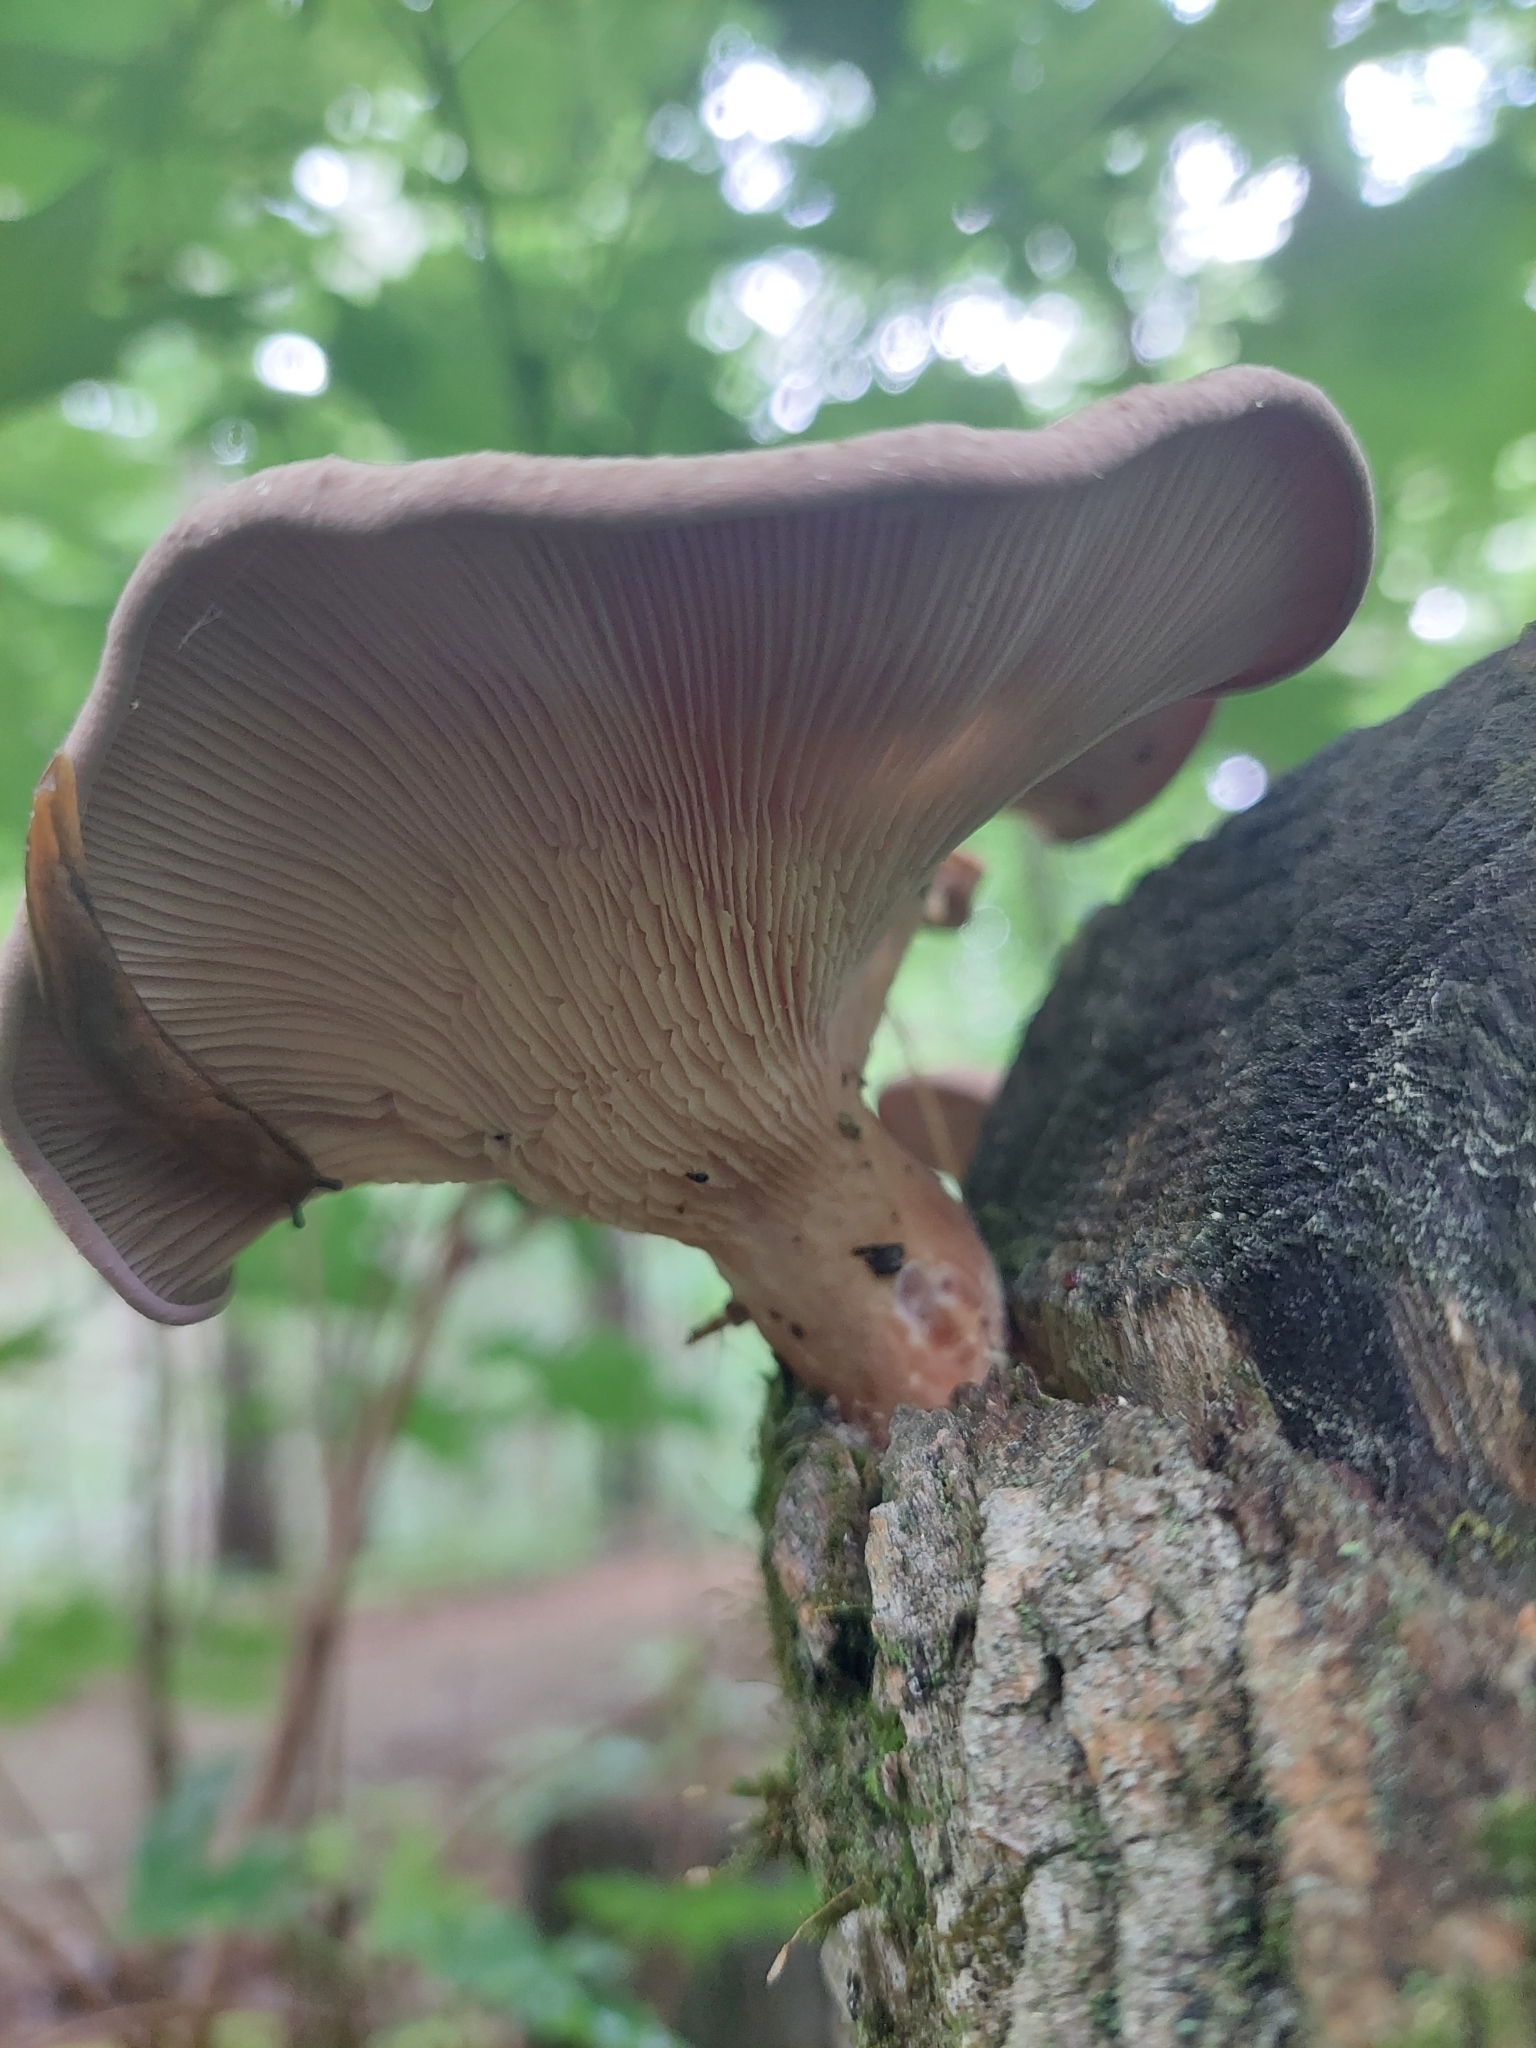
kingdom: Fungi
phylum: Basidiomycota
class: Agaricomycetes
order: Polyporales
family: Panaceae
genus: Panus
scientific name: Panus conchatus
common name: Lilac oysterling
